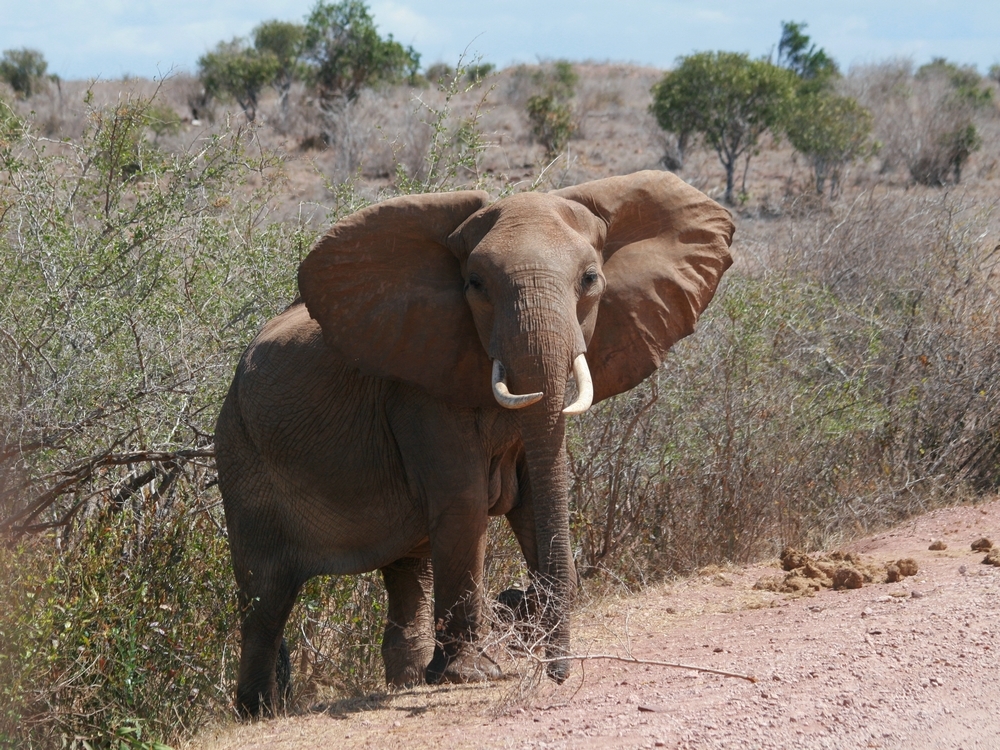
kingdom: Animalia
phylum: Chordata
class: Mammalia
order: Proboscidea
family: Elephantidae
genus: Loxodonta
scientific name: Loxodonta africana
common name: African elephant
